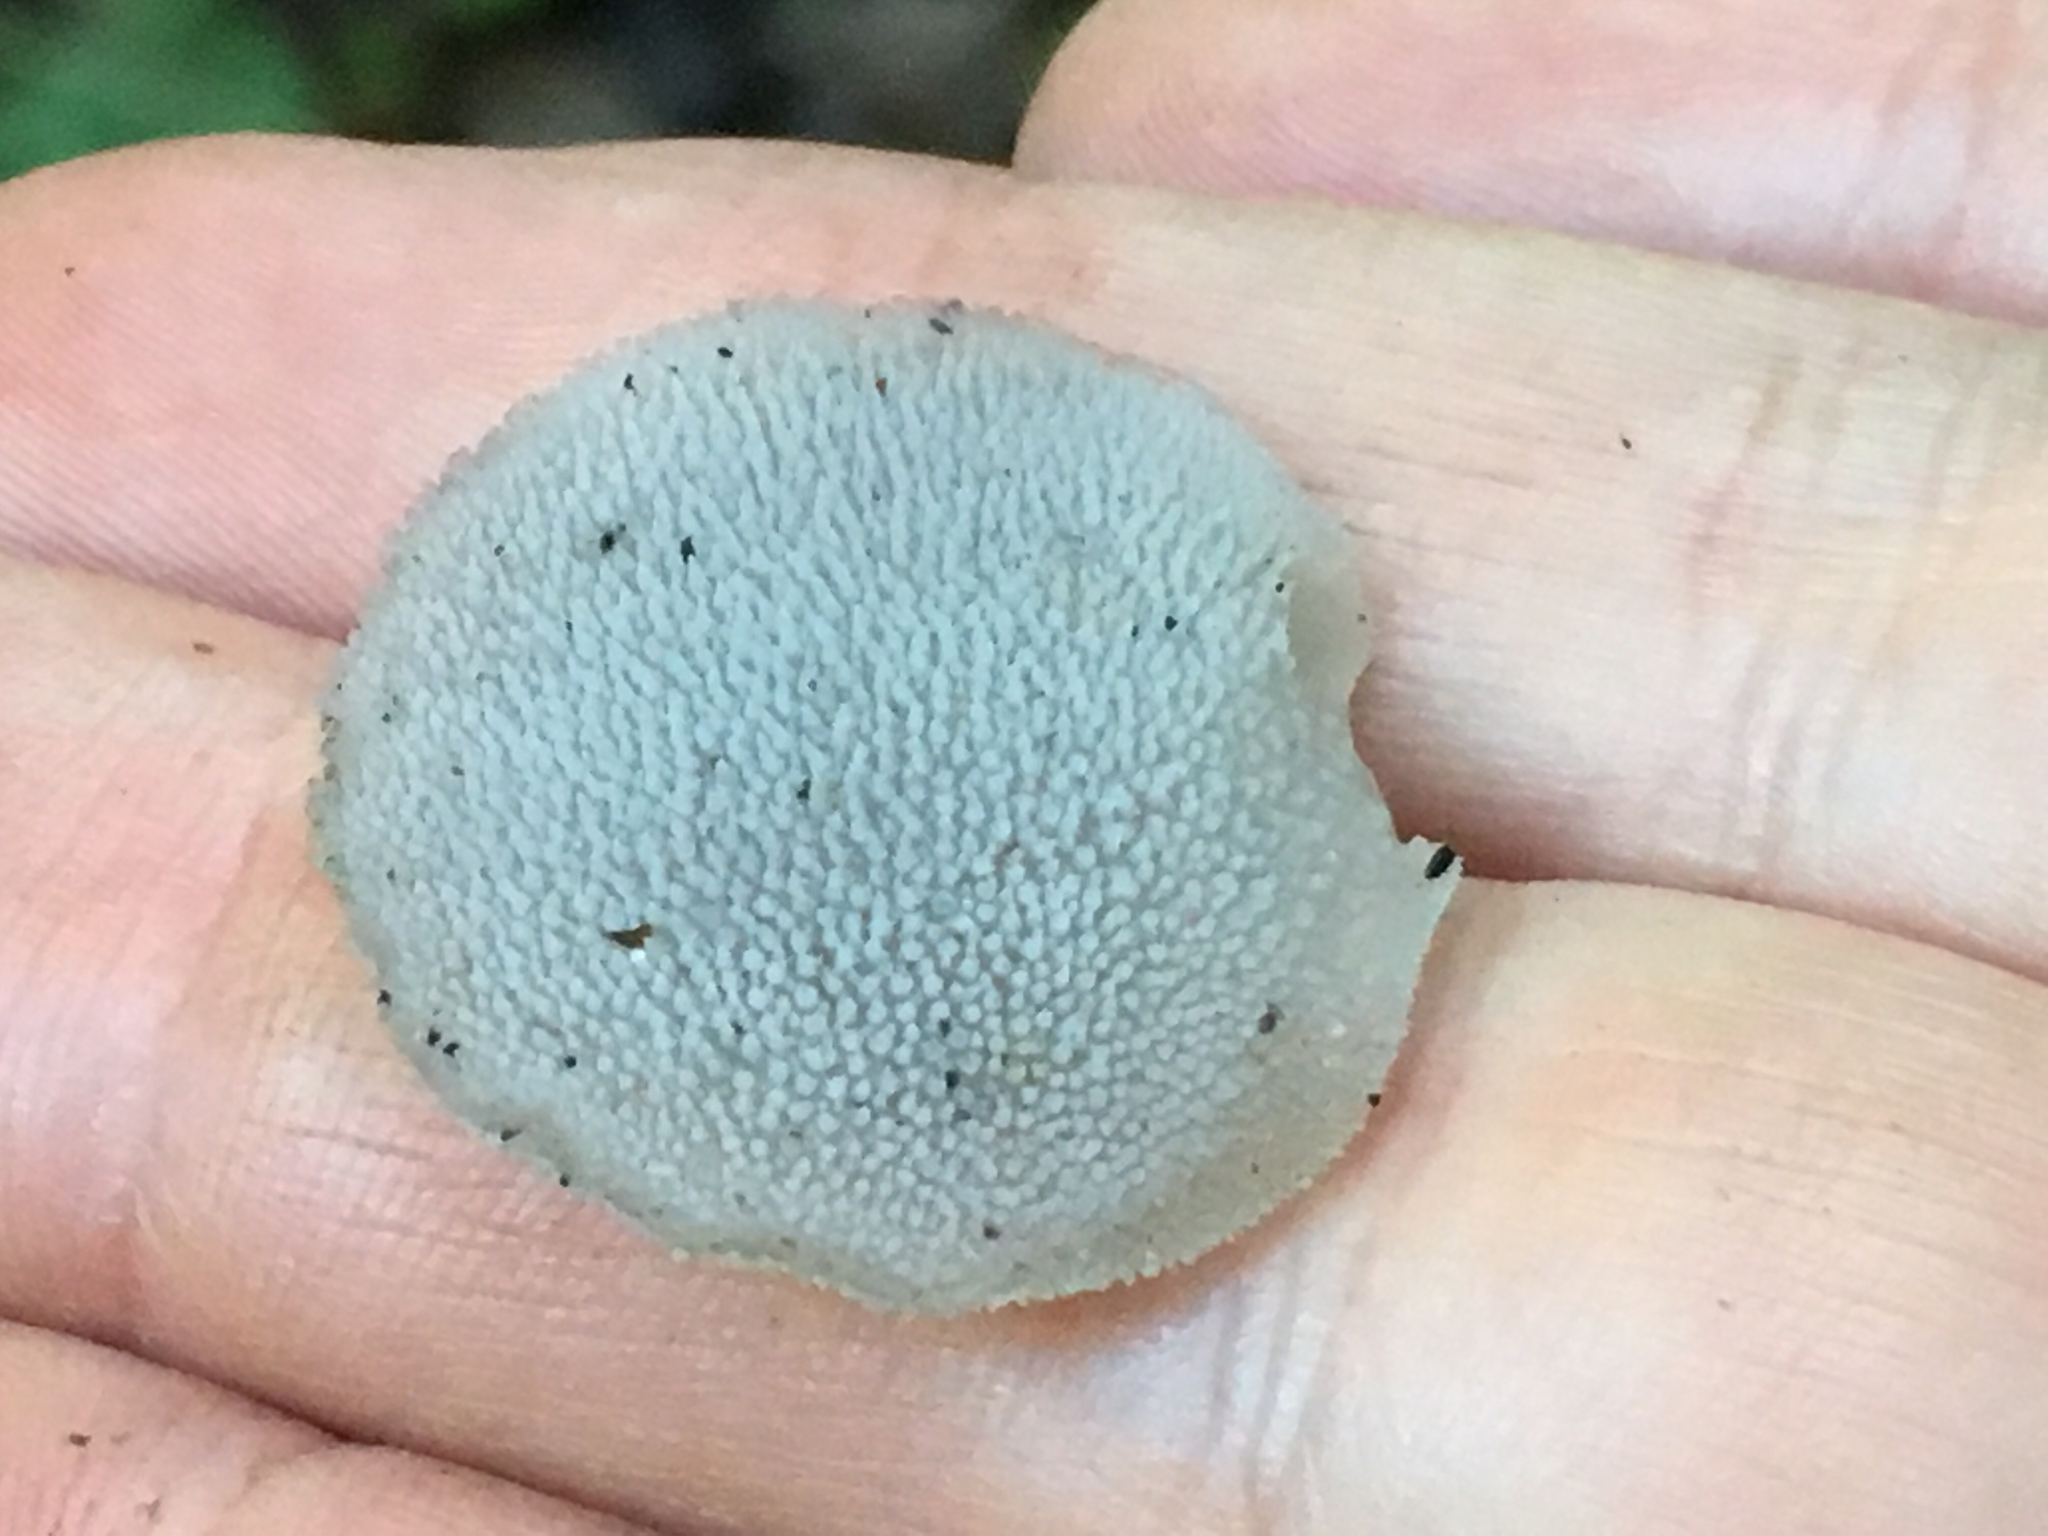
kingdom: Fungi
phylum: Basidiomycota
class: Agaricomycetes
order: Auriculariales
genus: Pseudohydnum
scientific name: Pseudohydnum gelatinosum
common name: Jelly tongue
